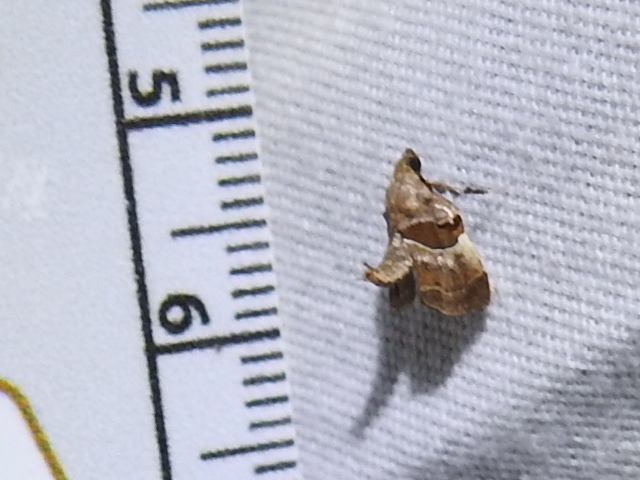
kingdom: Animalia
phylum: Arthropoda
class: Insecta
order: Lepidoptera
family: Pyralidae
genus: Tosale
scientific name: Tosale aucta
